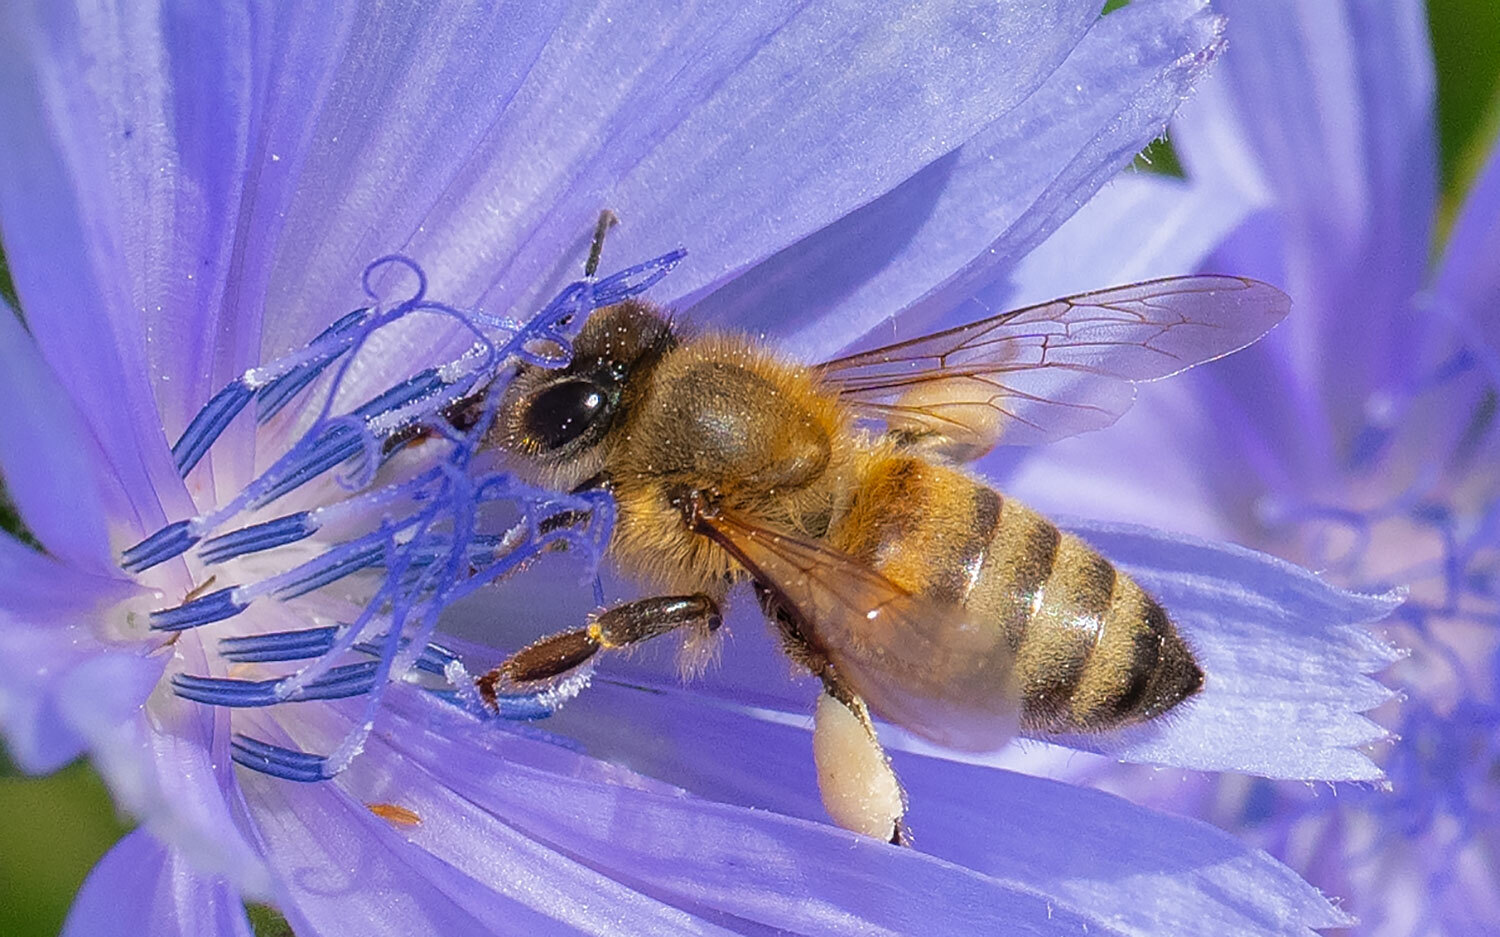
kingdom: Animalia
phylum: Arthropoda
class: Insecta
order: Hymenoptera
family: Apidae
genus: Apis
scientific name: Apis mellifera
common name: Honey bee
